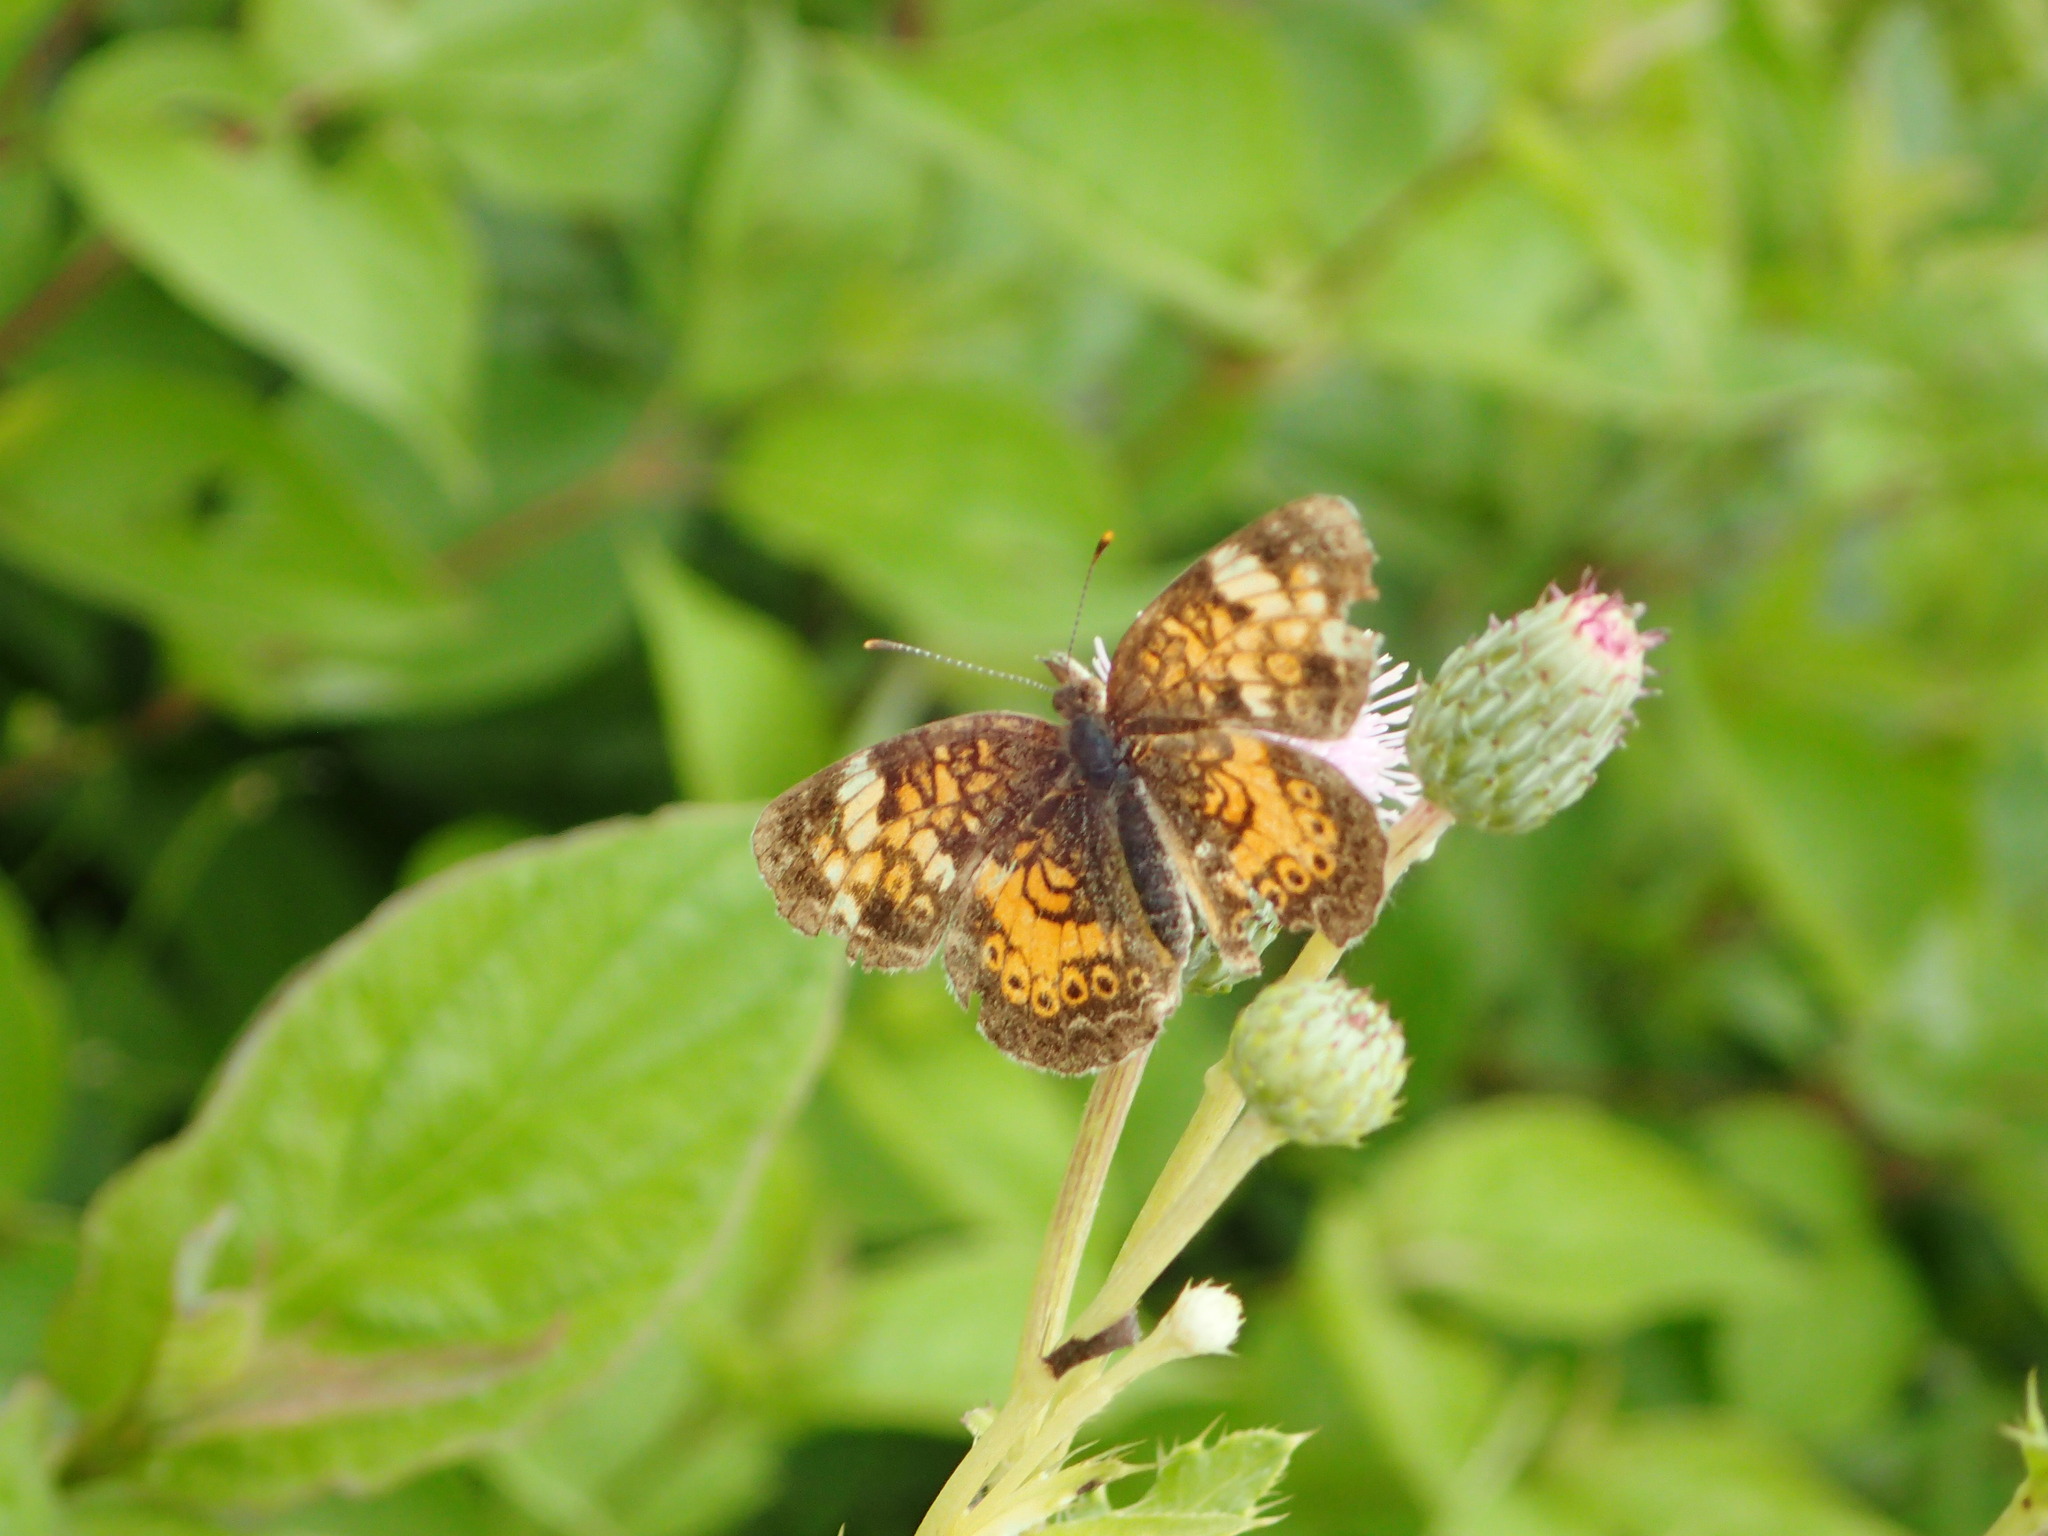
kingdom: Animalia
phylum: Arthropoda
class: Insecta
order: Lepidoptera
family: Nymphalidae
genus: Phyciodes
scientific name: Phyciodes tharos
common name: Pearl crescent
